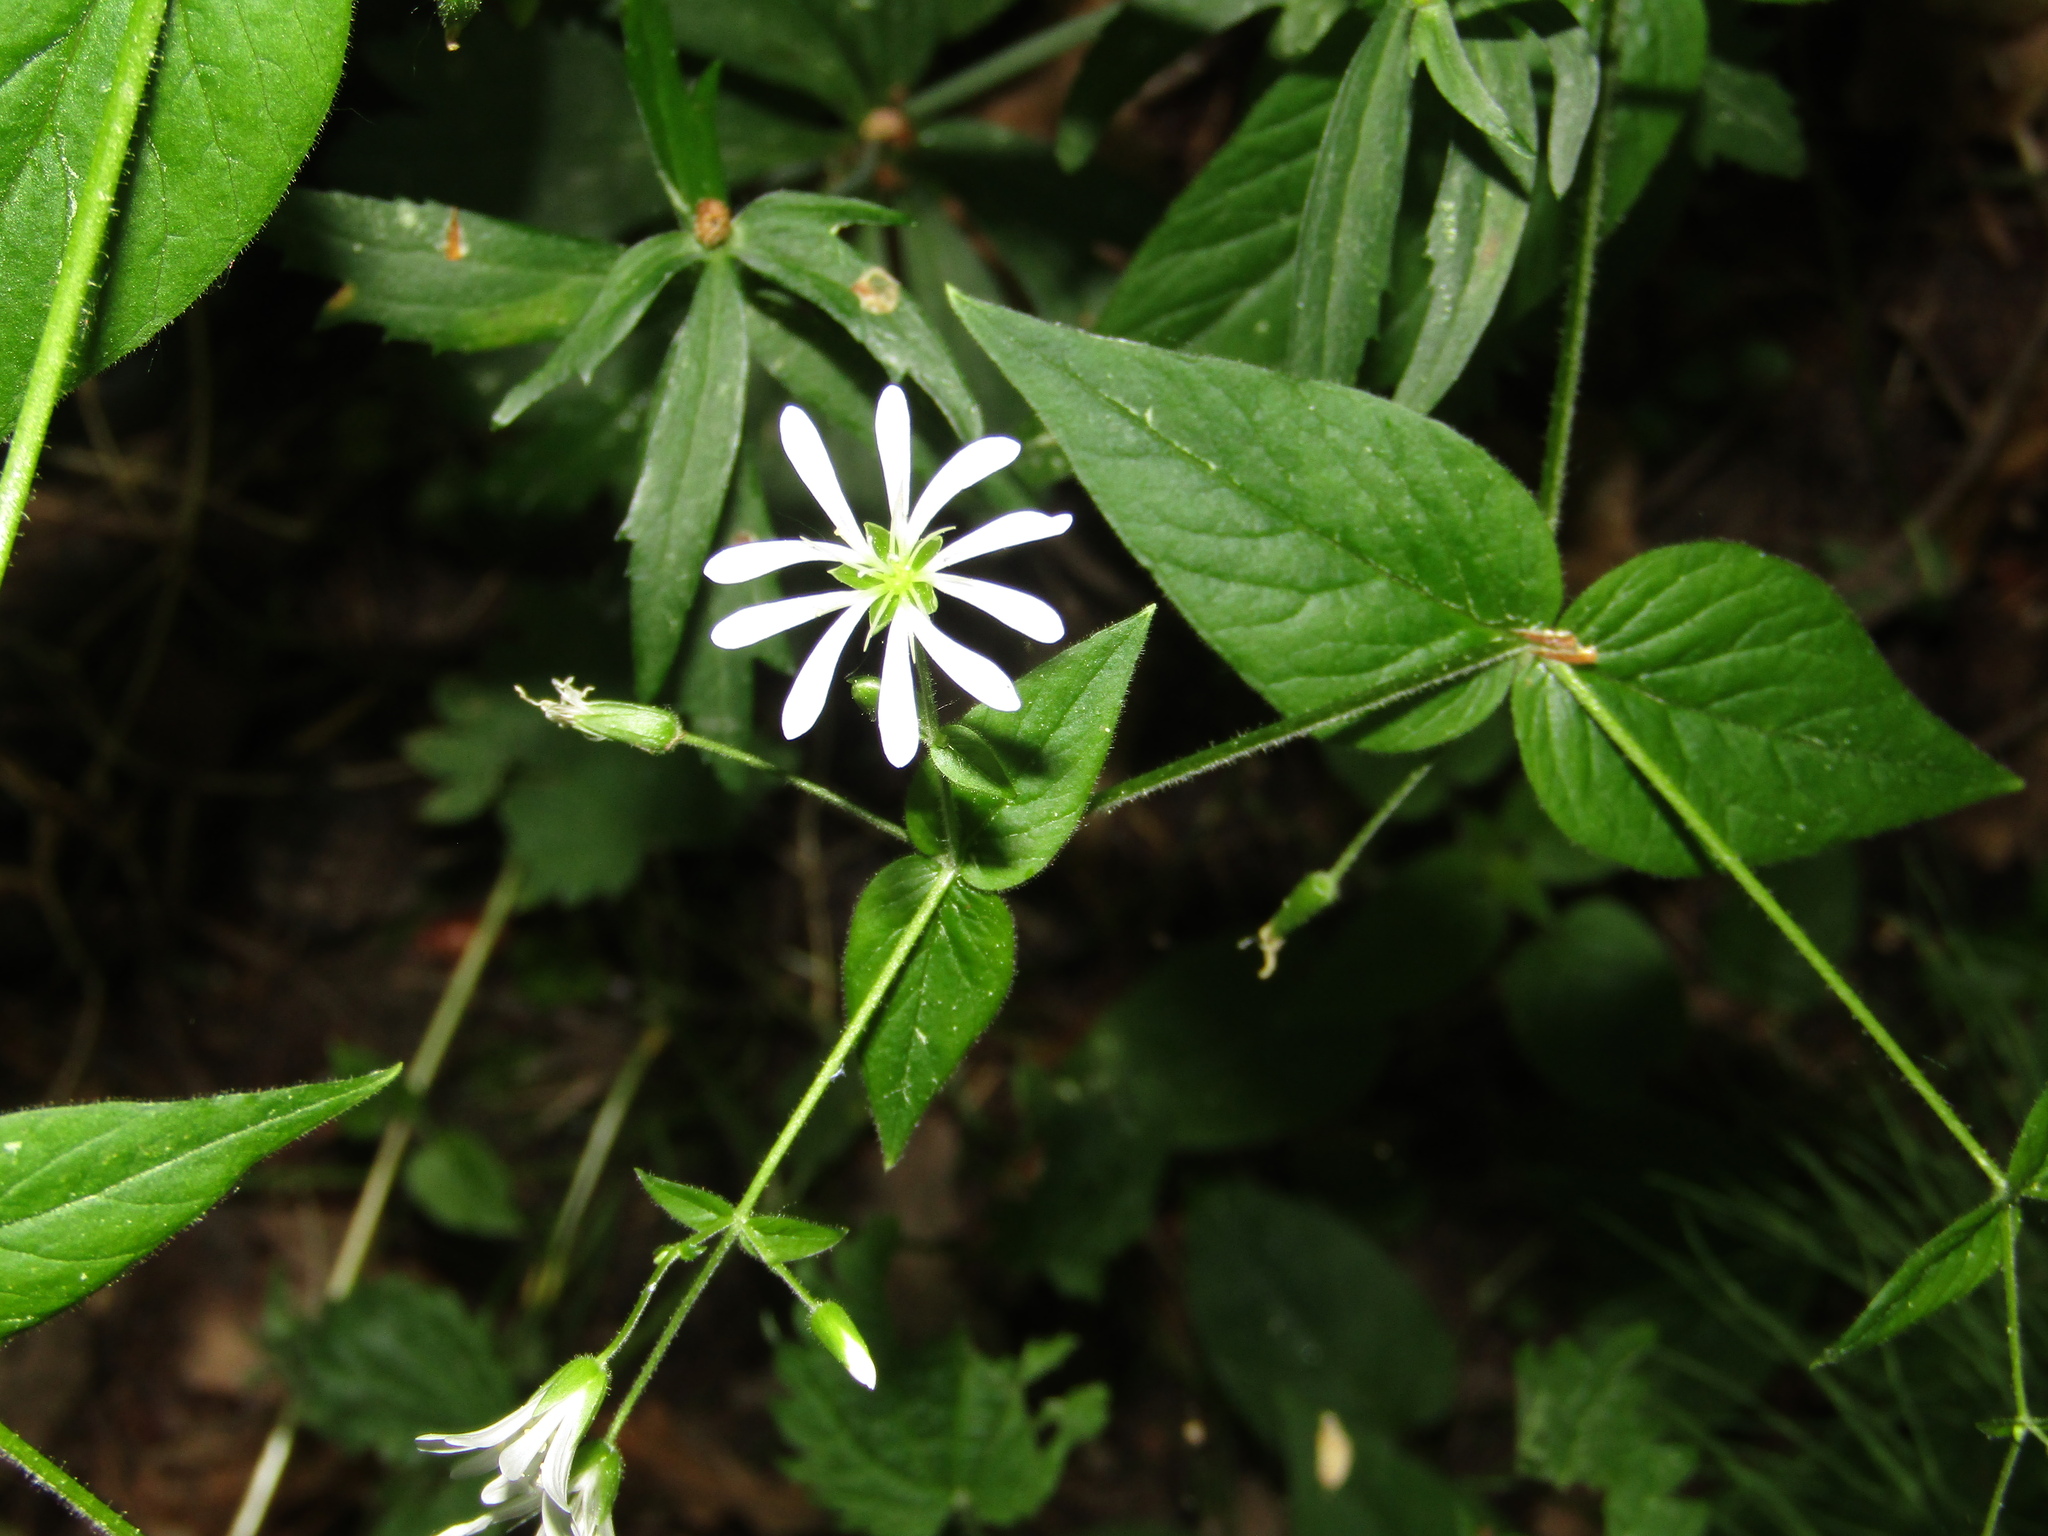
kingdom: Plantae
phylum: Tracheophyta
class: Magnoliopsida
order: Caryophyllales
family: Caryophyllaceae
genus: Stellaria
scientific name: Stellaria nemorum
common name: Wood stitchwort
